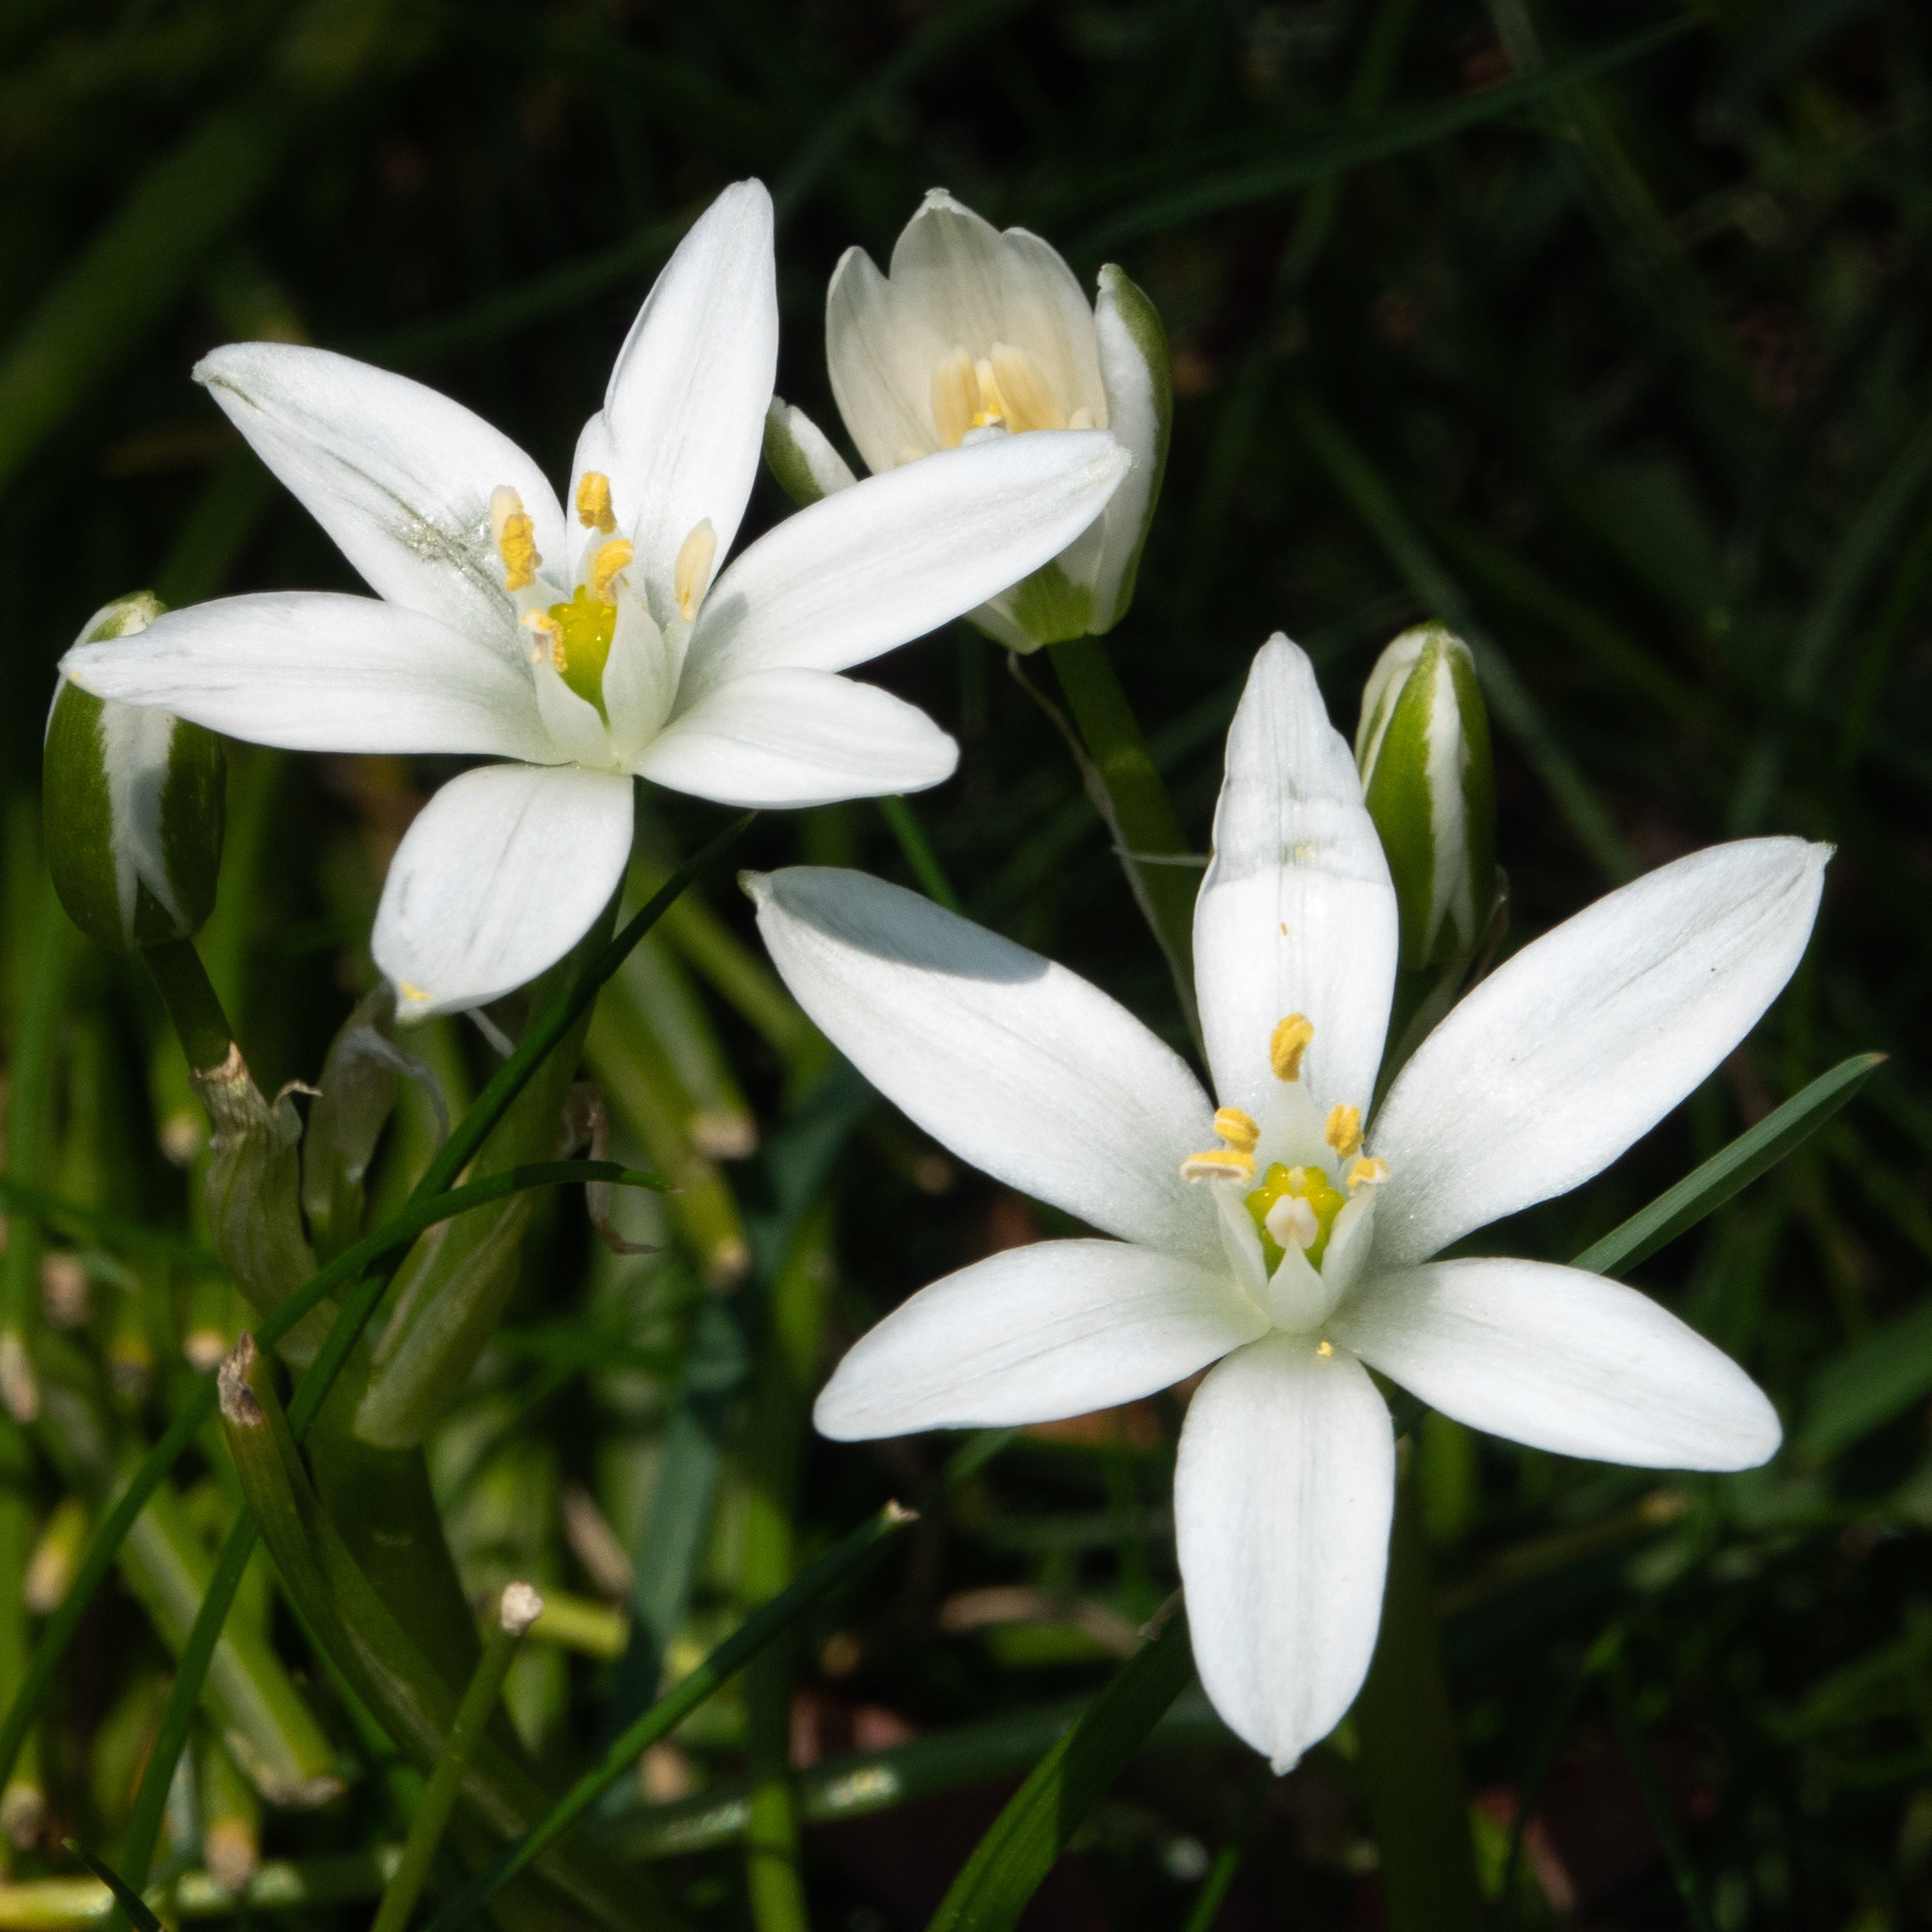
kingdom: Plantae
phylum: Tracheophyta
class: Liliopsida
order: Asparagales
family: Asparagaceae
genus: Ornithogalum
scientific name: Ornithogalum umbellatum
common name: Garden star-of-bethlehem
